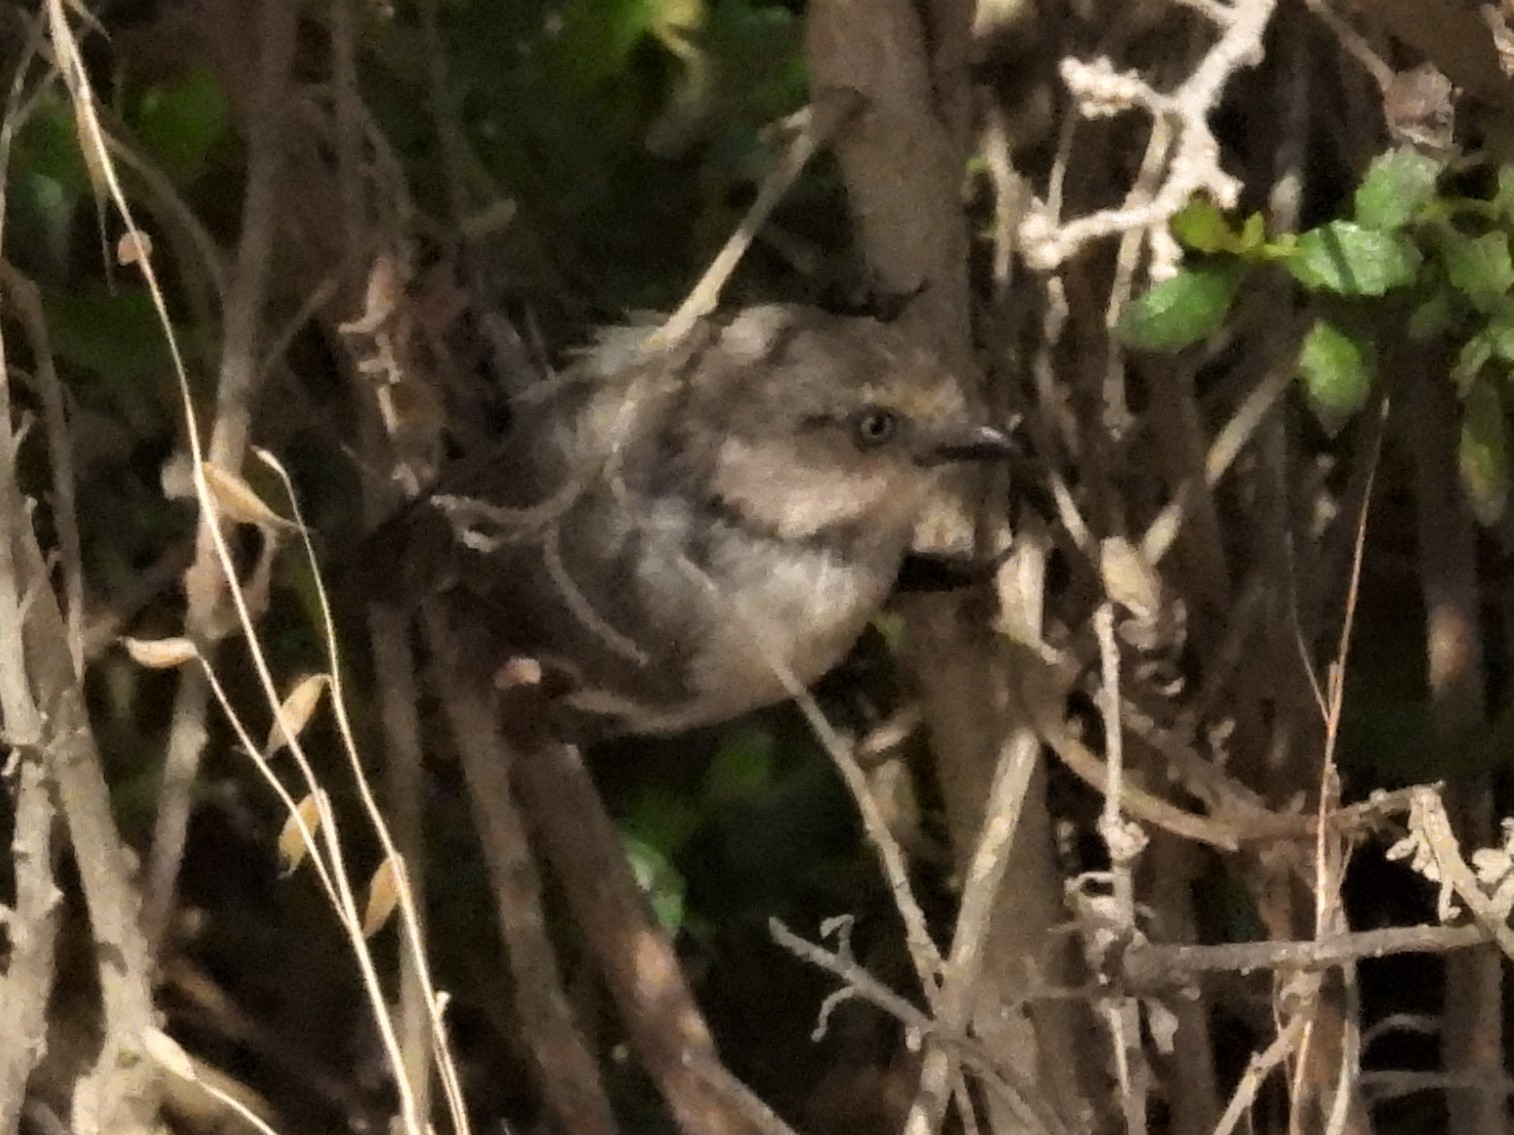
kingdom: Animalia
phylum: Chordata
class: Aves
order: Passeriformes
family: Aegithalidae
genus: Psaltriparus
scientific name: Psaltriparus minimus
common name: American bushtit
